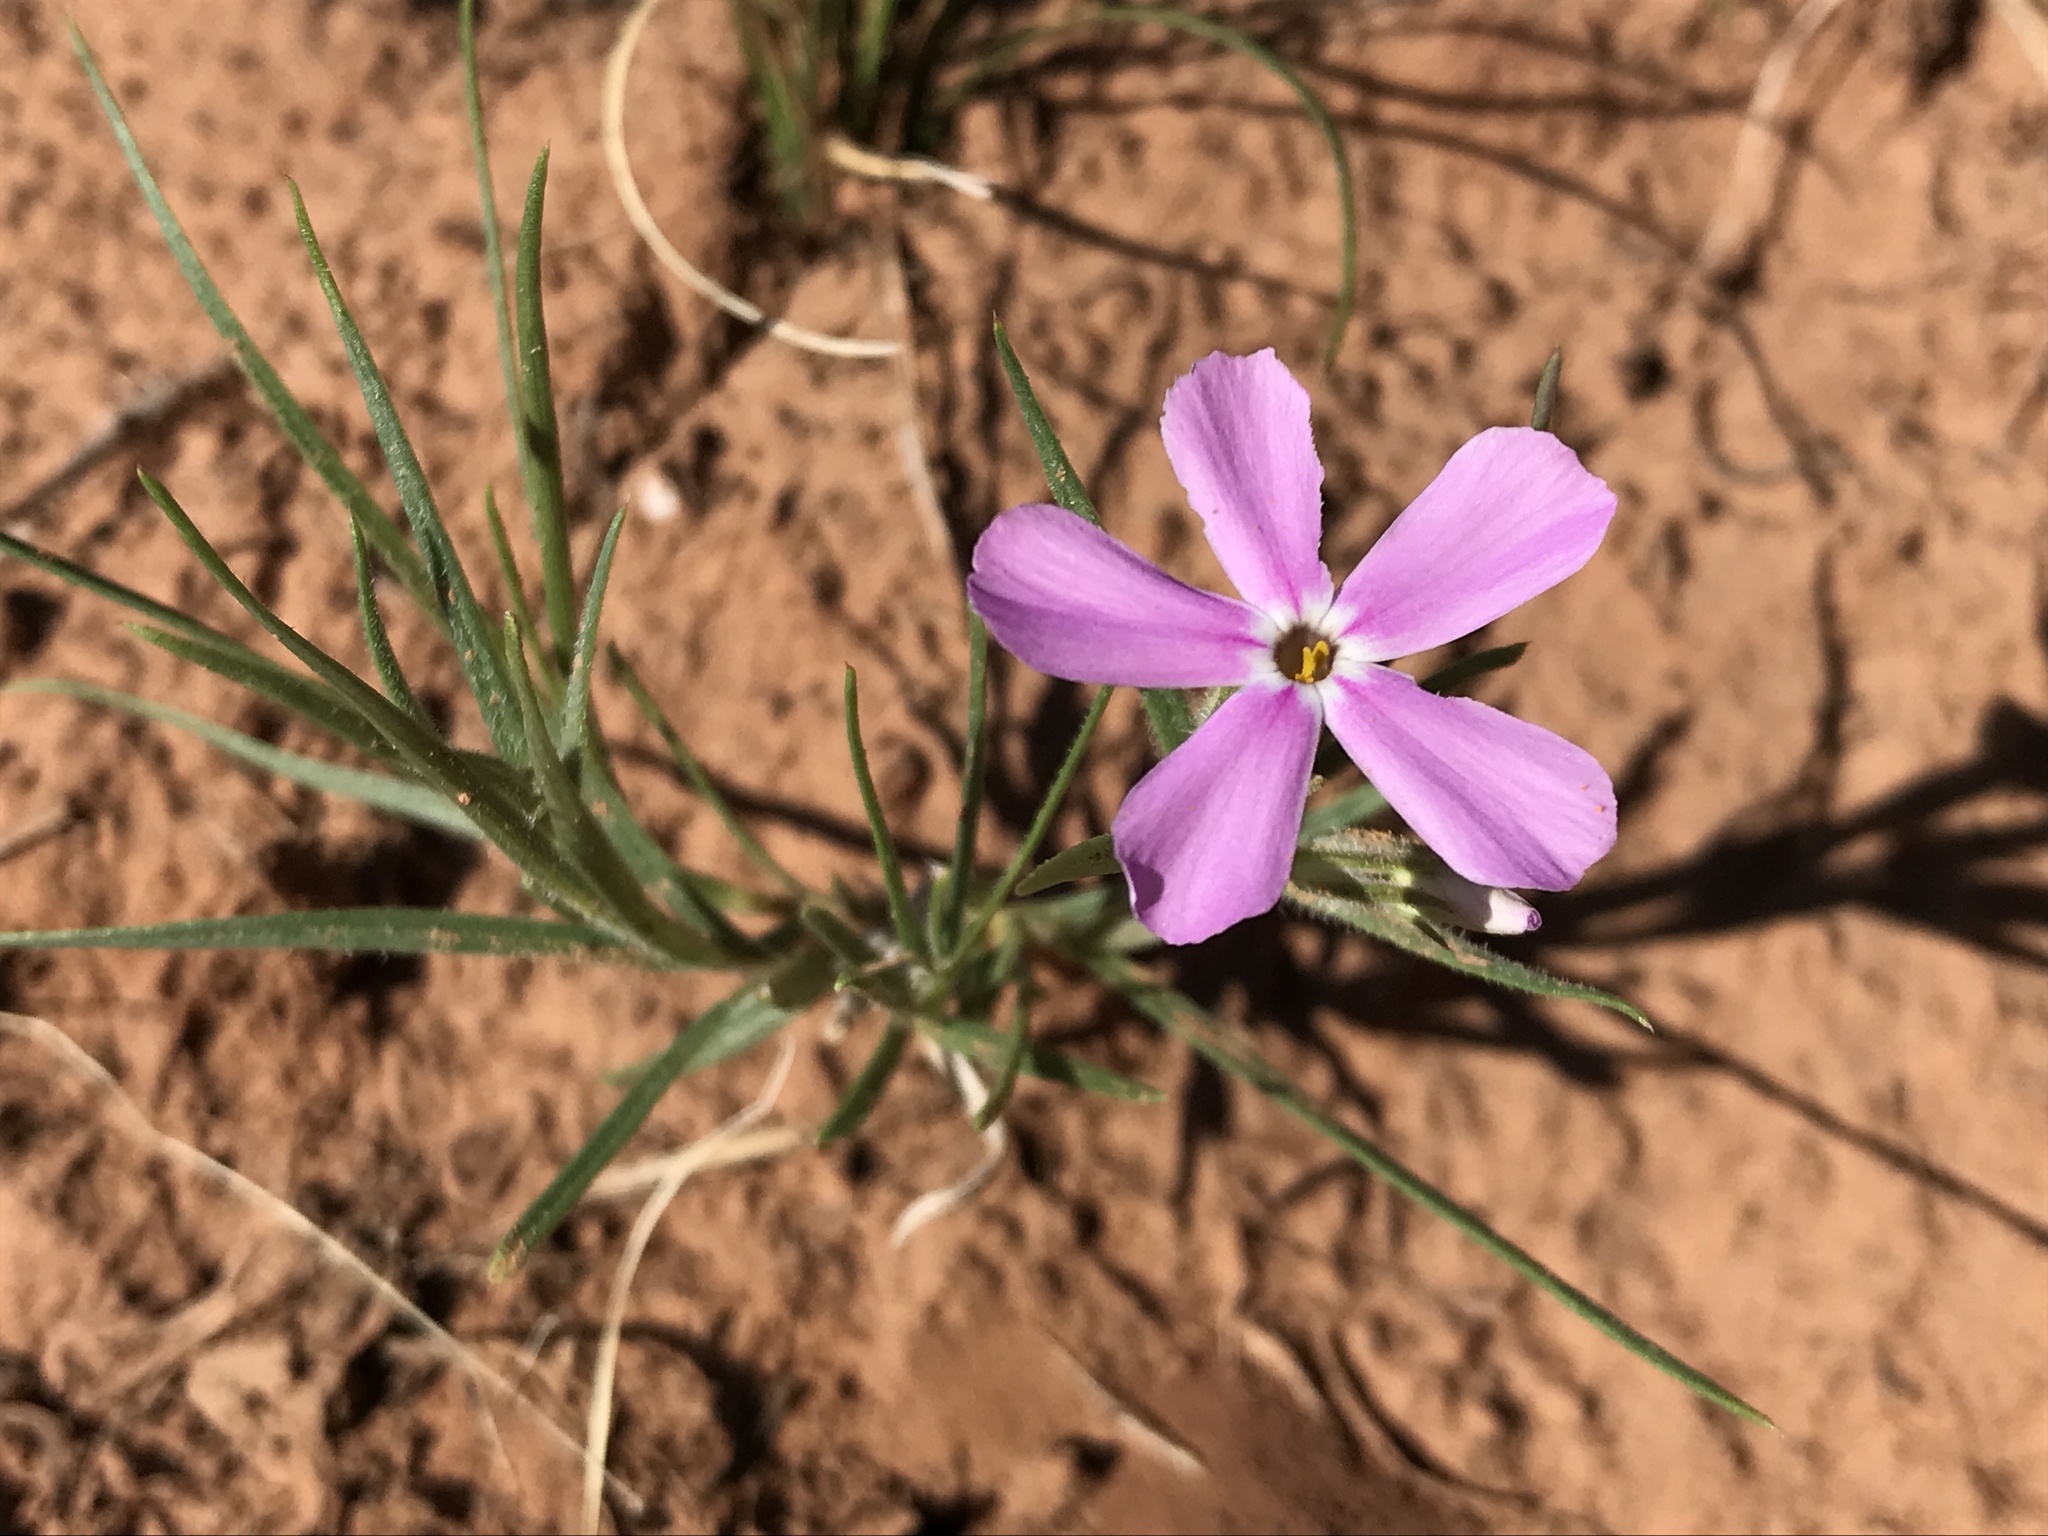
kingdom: Plantae
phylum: Tracheophyta
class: Magnoliopsida
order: Ericales
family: Polemoniaceae
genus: Phlox
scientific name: Phlox longifolia
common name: Longleaf phlox
